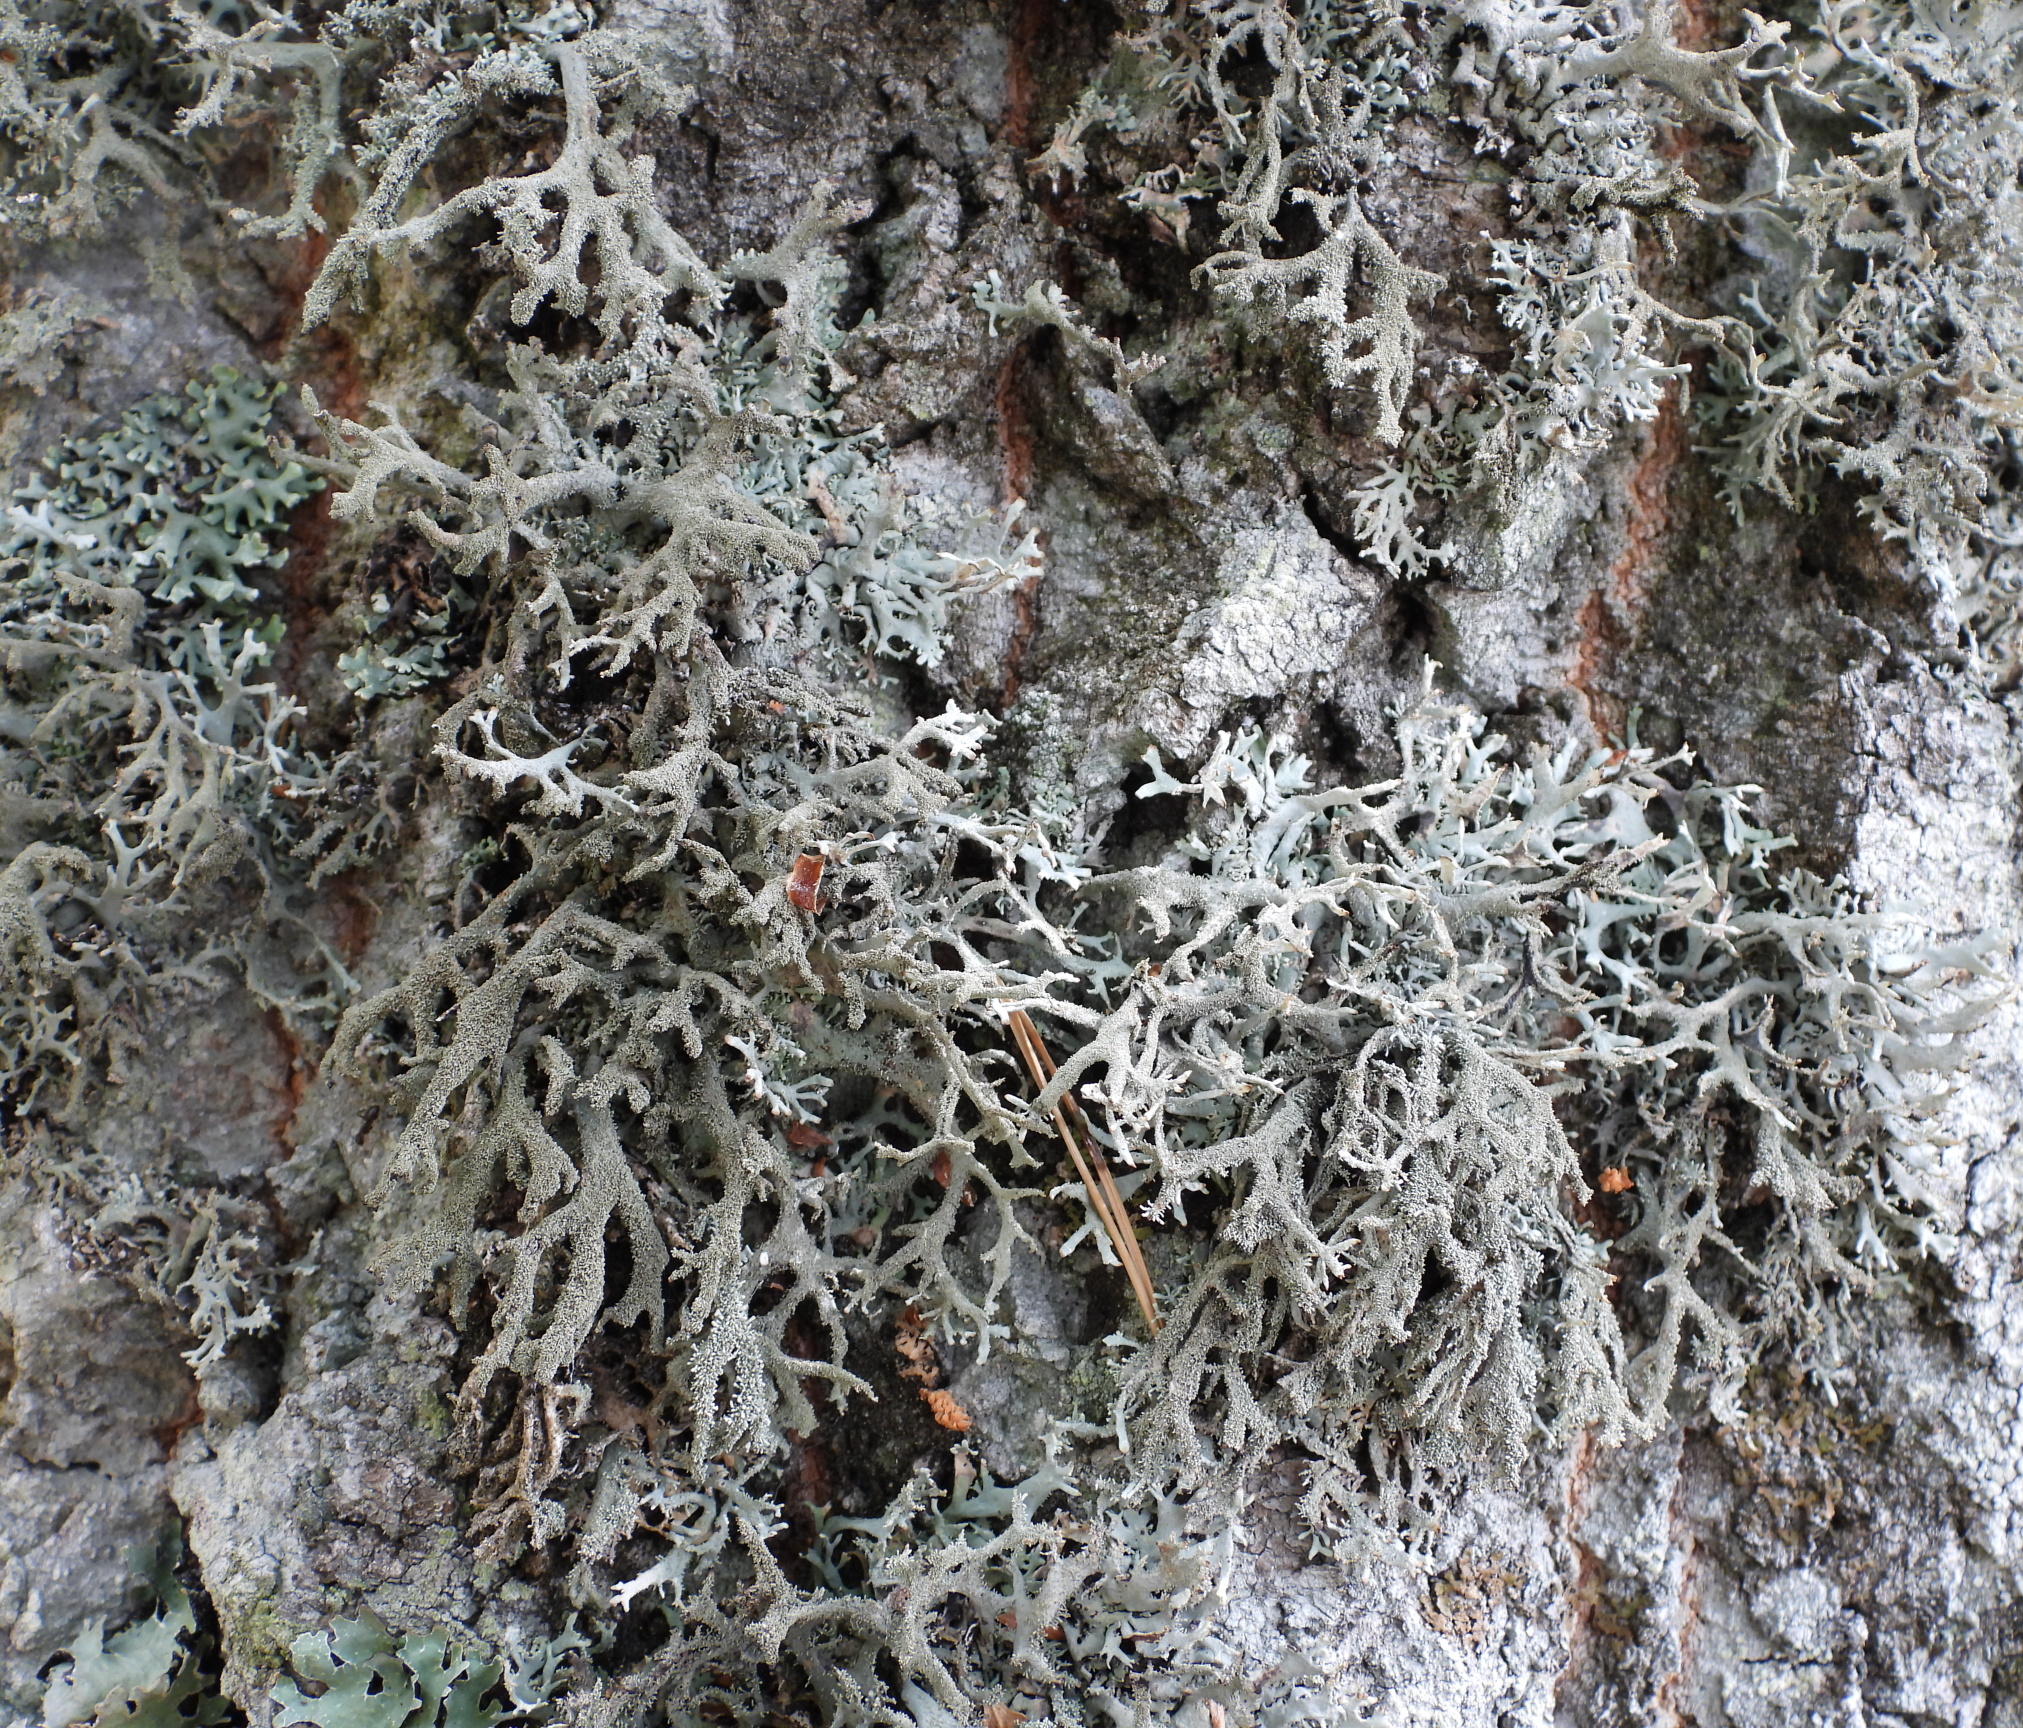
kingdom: Fungi
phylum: Ascomycota
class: Lecanoromycetes
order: Lecanorales
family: Parmeliaceae
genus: Pseudevernia
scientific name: Pseudevernia furfuracea
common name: Tree moss
